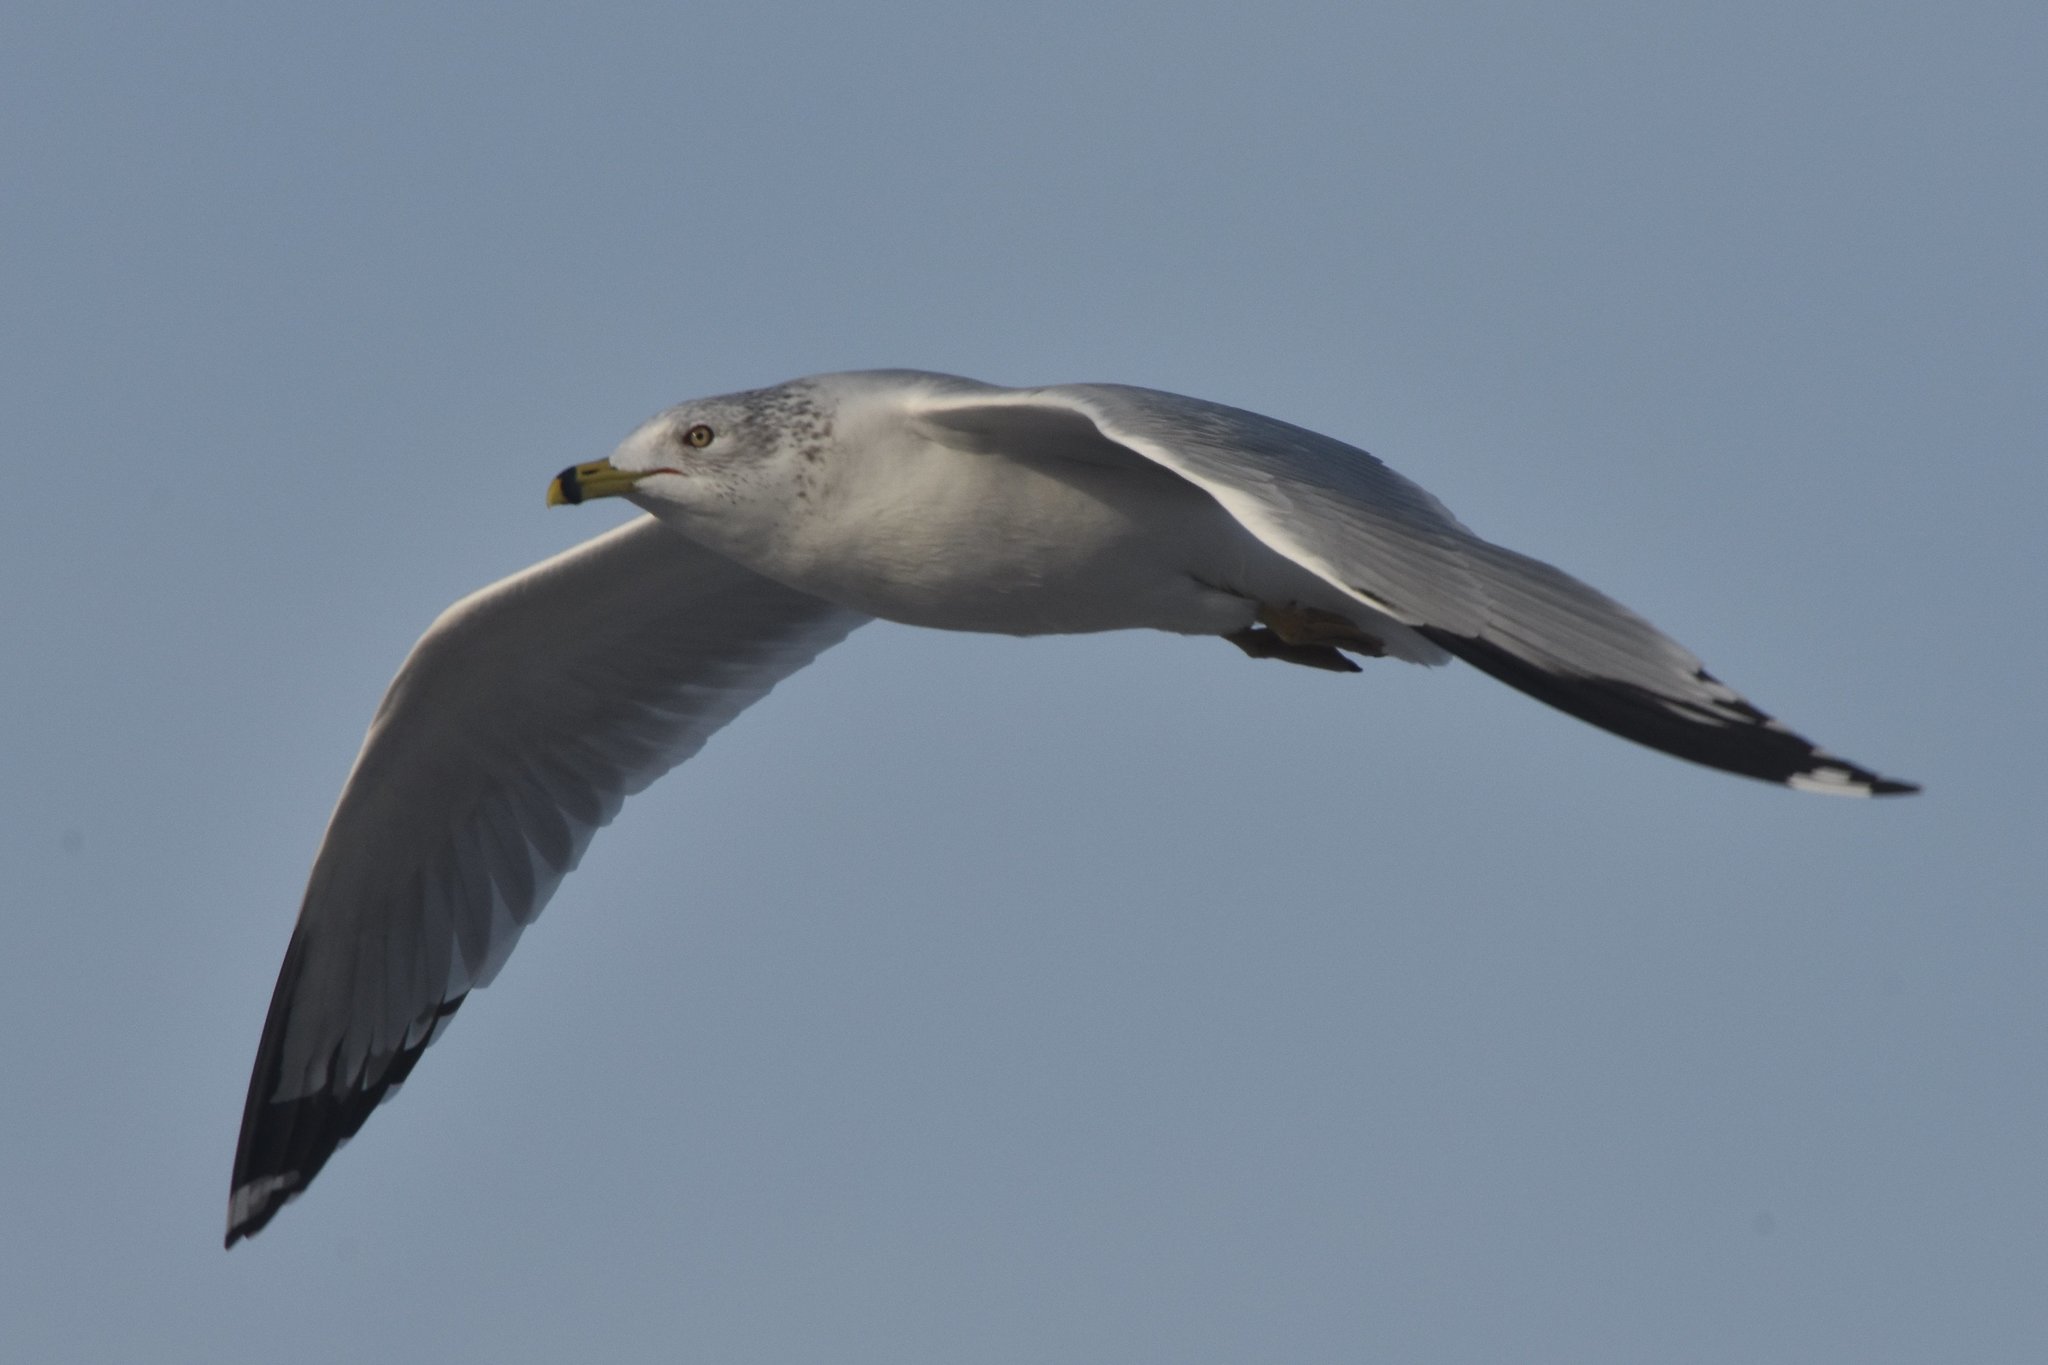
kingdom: Animalia
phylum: Chordata
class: Aves
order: Charadriiformes
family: Laridae
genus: Larus
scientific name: Larus delawarensis
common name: Ring-billed gull
